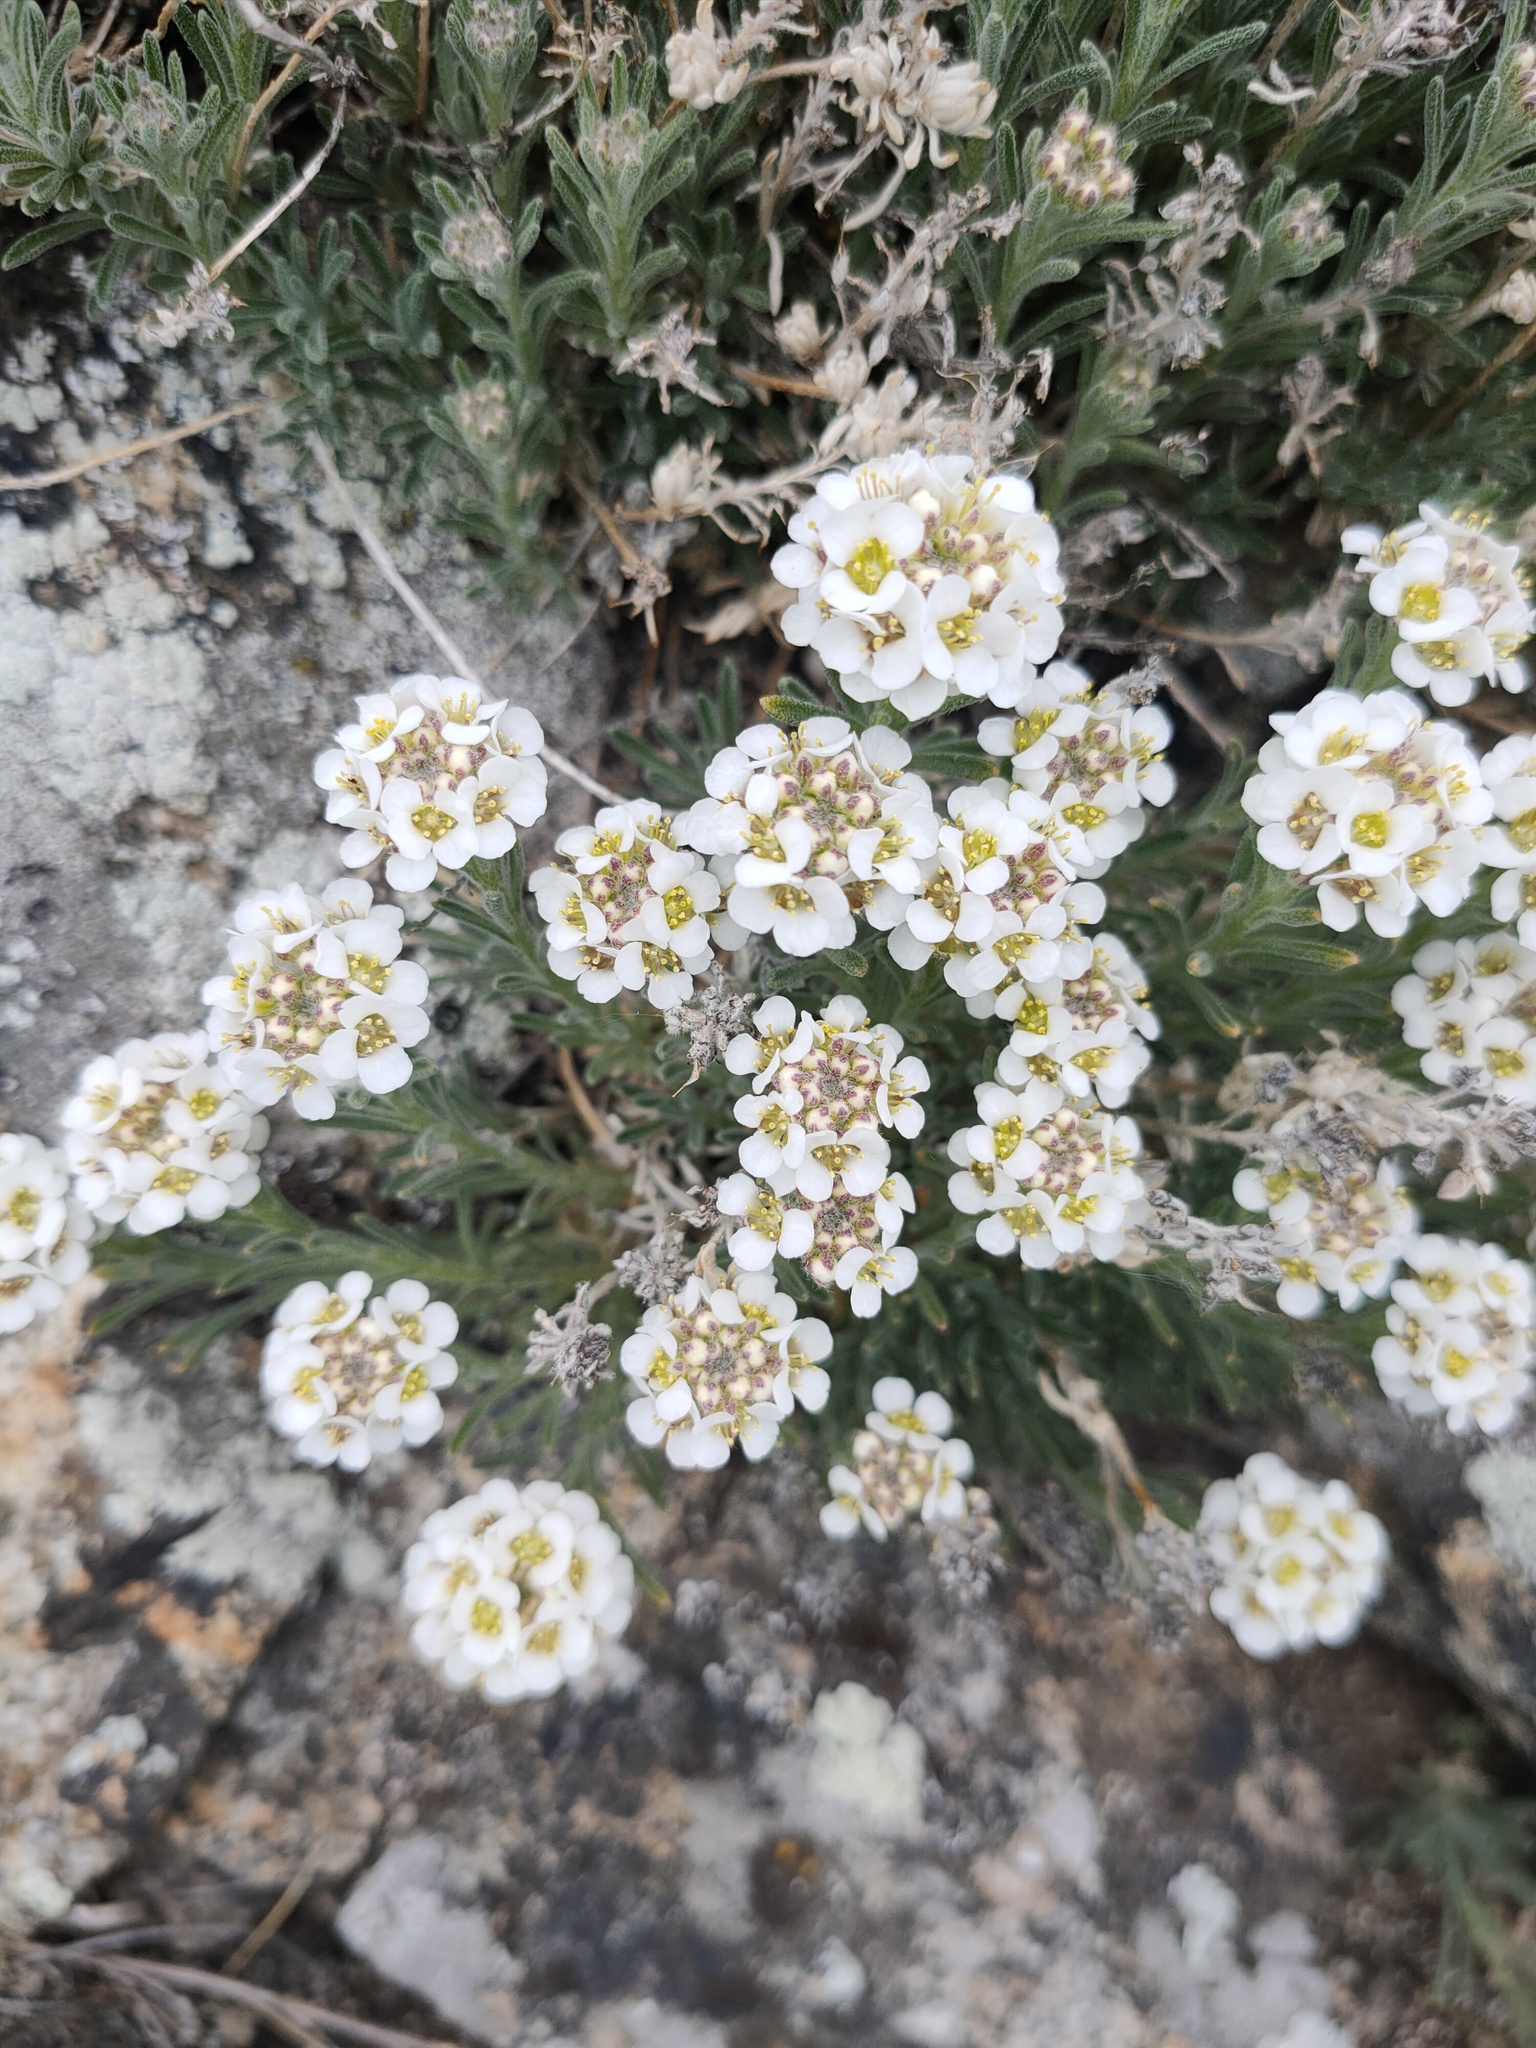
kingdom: Plantae
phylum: Tracheophyta
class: Magnoliopsida
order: Brassicales
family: Brassicaceae
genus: Stevenia
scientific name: Stevenia tenuifolia
